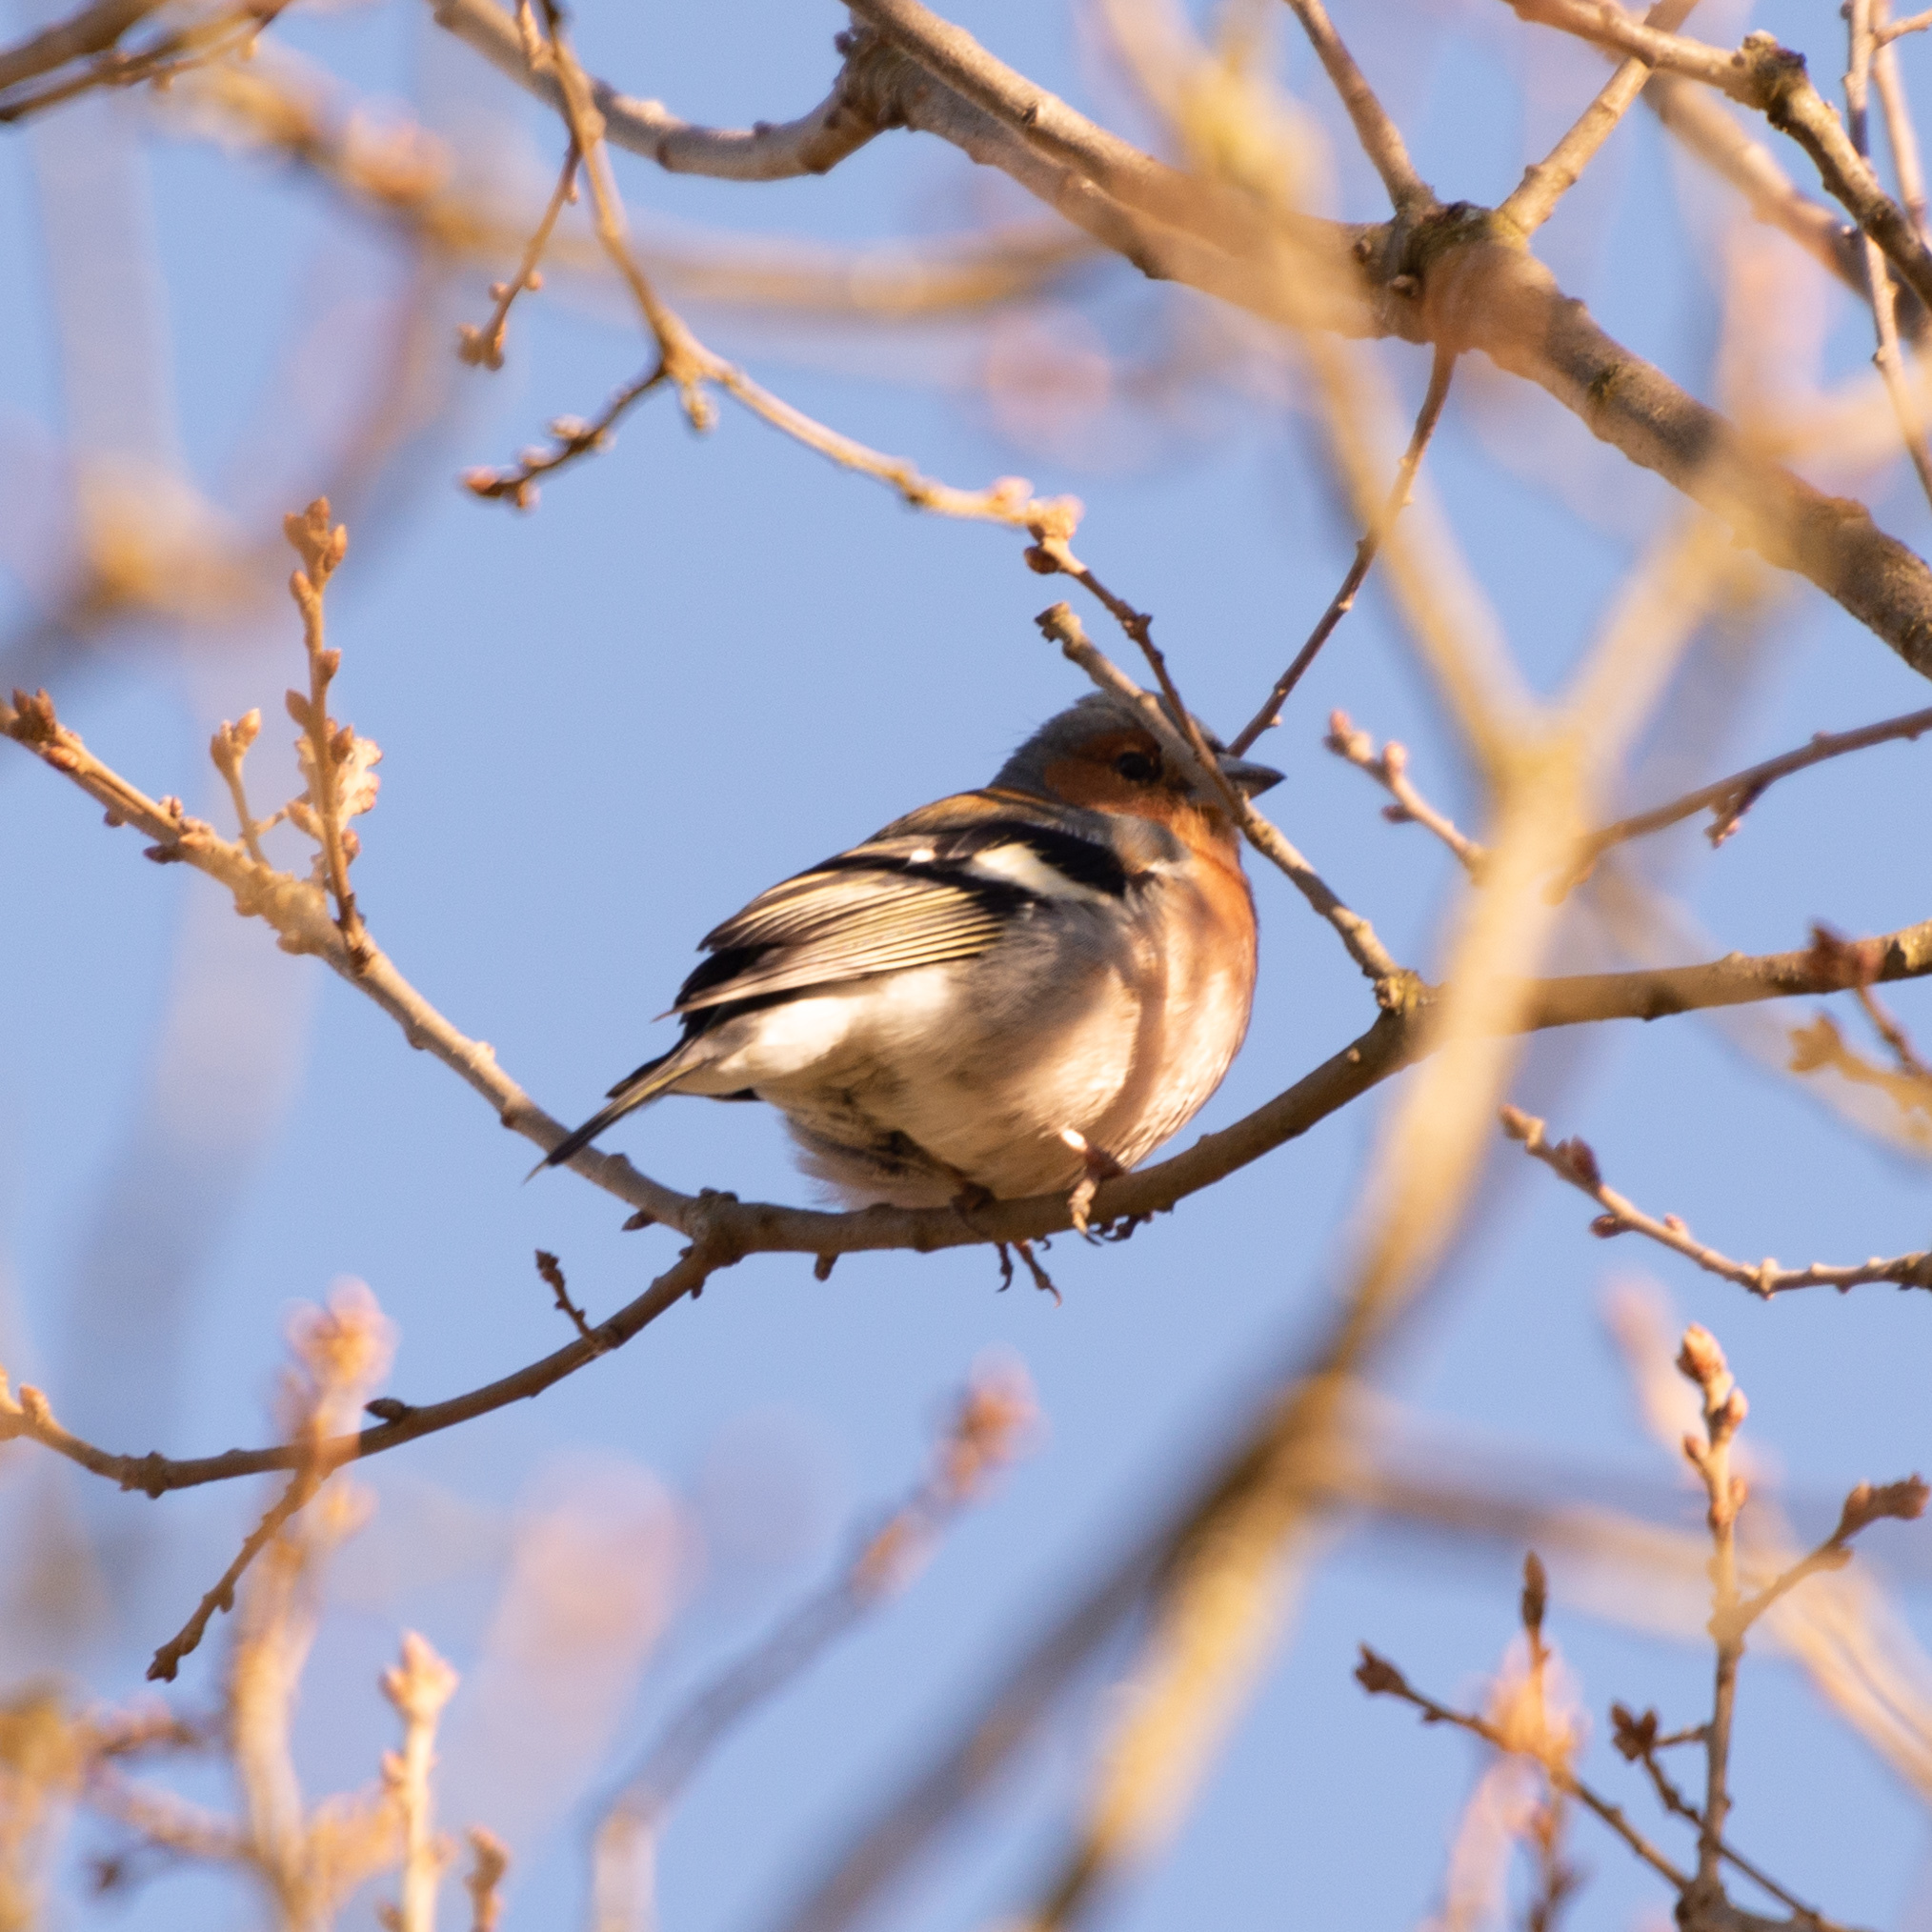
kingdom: Animalia
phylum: Chordata
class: Aves
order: Passeriformes
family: Fringillidae
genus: Fringilla
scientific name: Fringilla coelebs
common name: Common chaffinch
